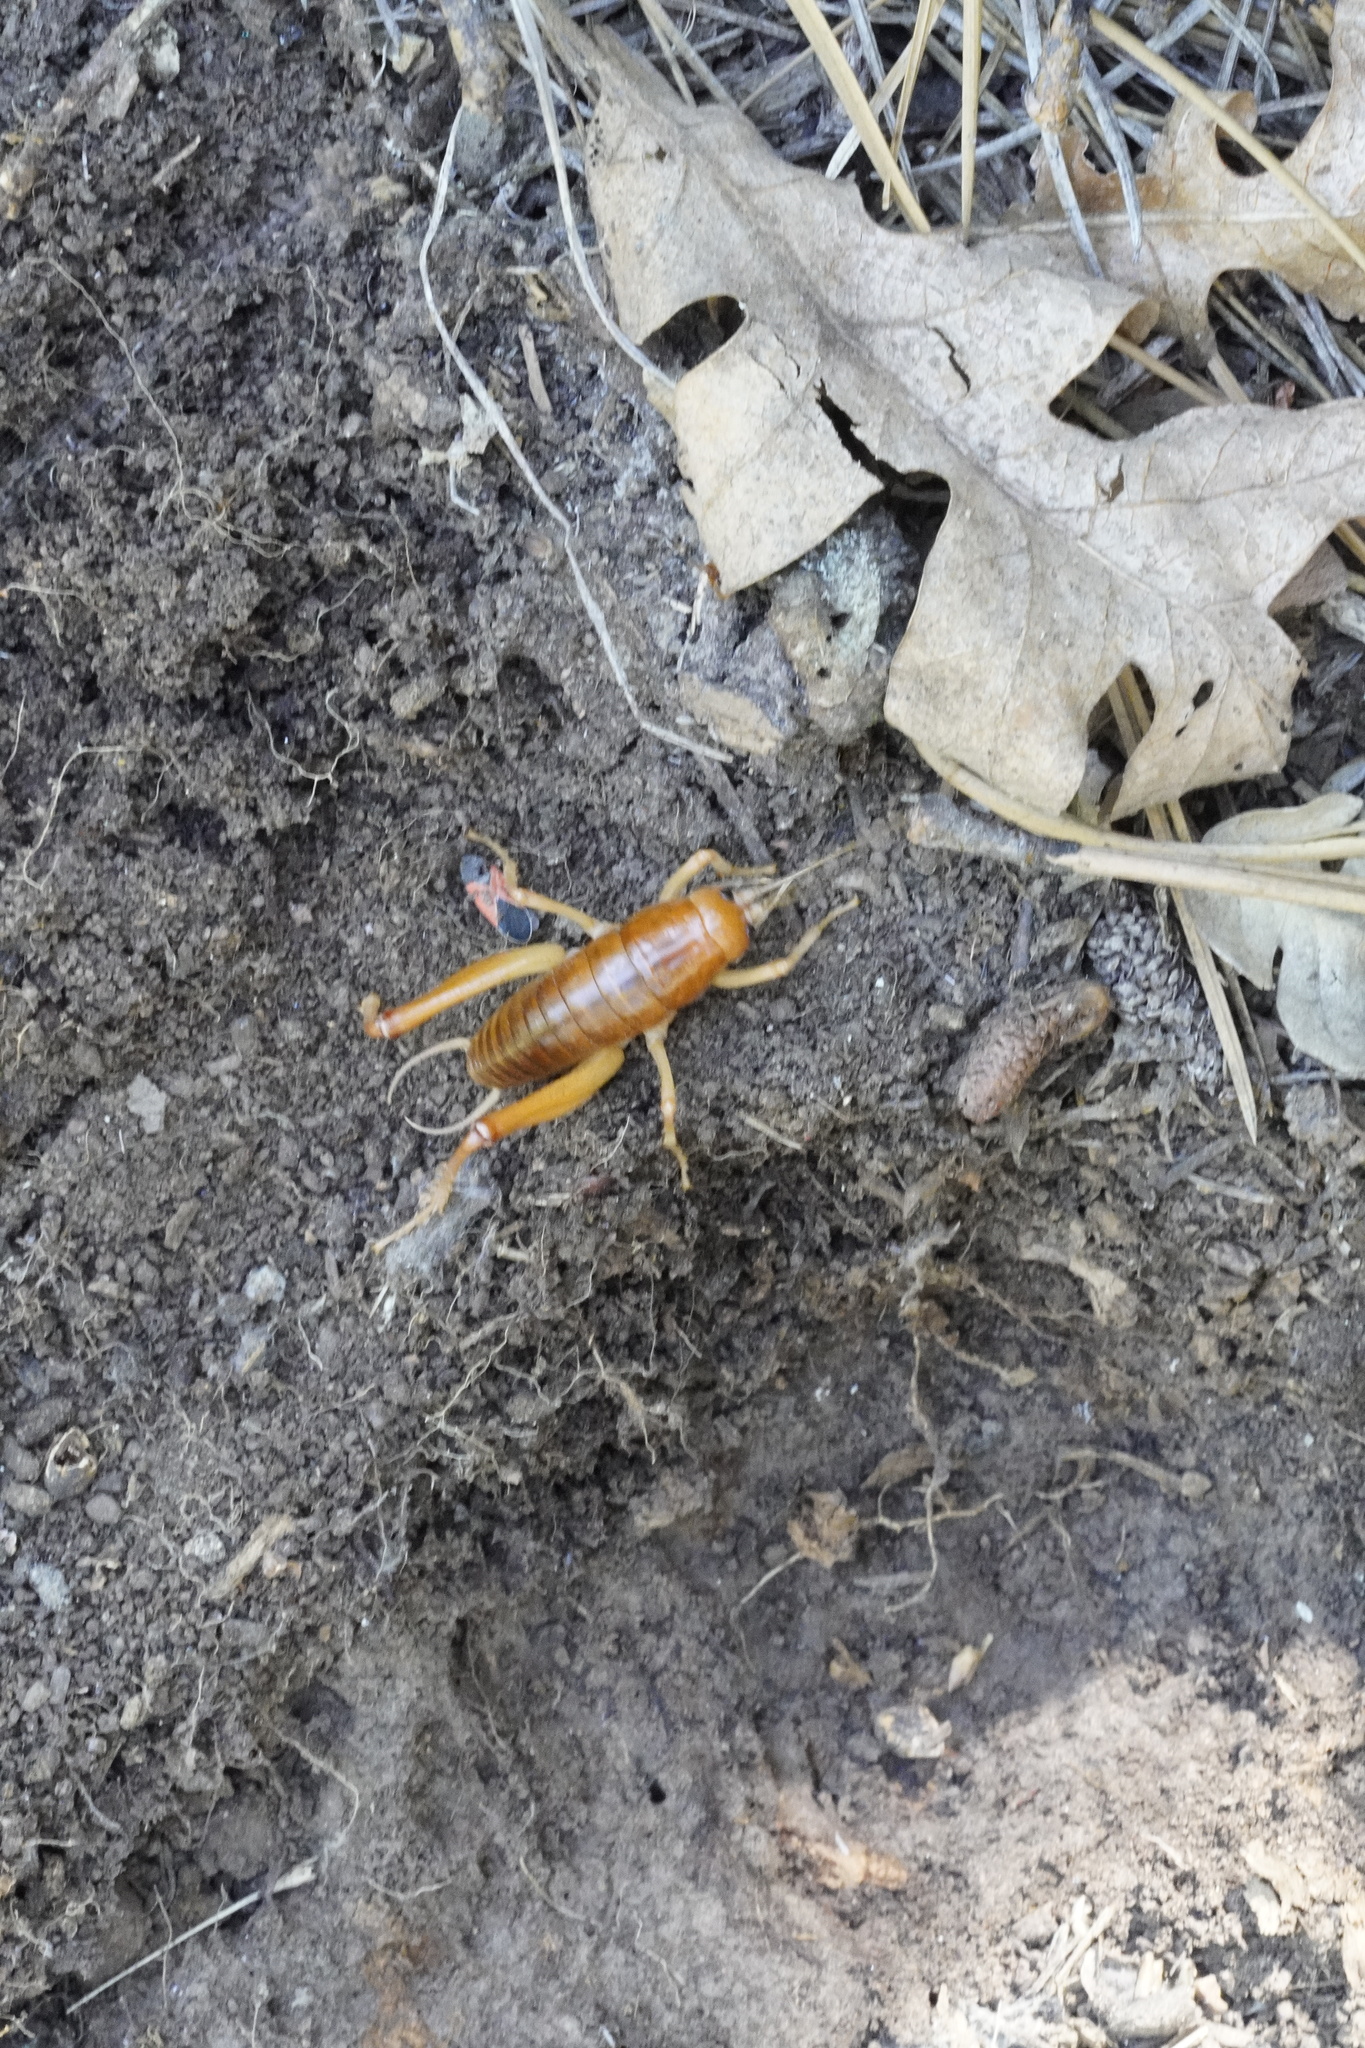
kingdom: Animalia
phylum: Arthropoda
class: Insecta
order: Orthoptera
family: Rhaphidophoridae
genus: Styracosceles
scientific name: Styracosceles neomexicanus
